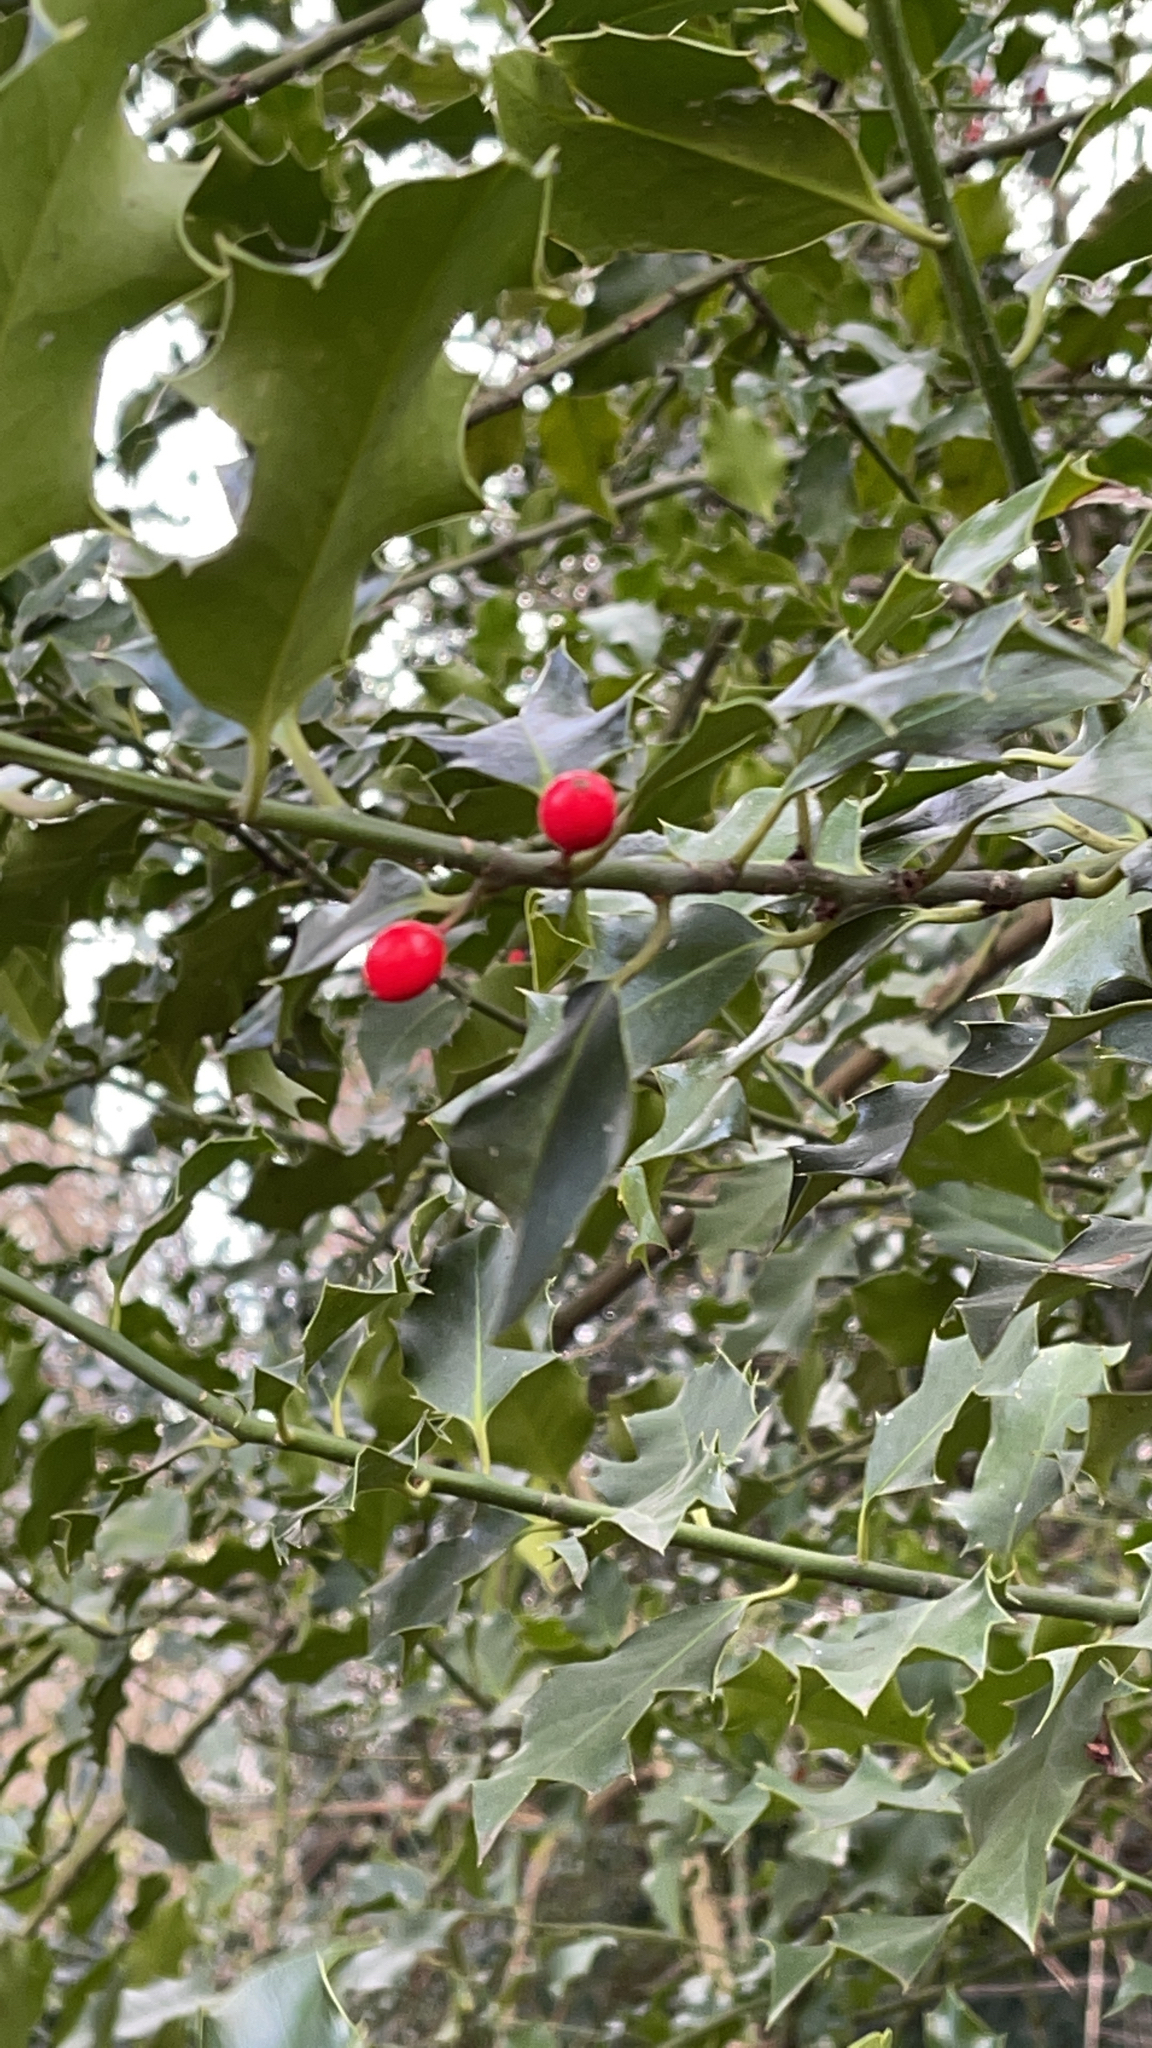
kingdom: Plantae
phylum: Tracheophyta
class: Magnoliopsida
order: Aquifoliales
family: Aquifoliaceae
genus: Ilex
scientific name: Ilex aquifolium
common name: English holly
